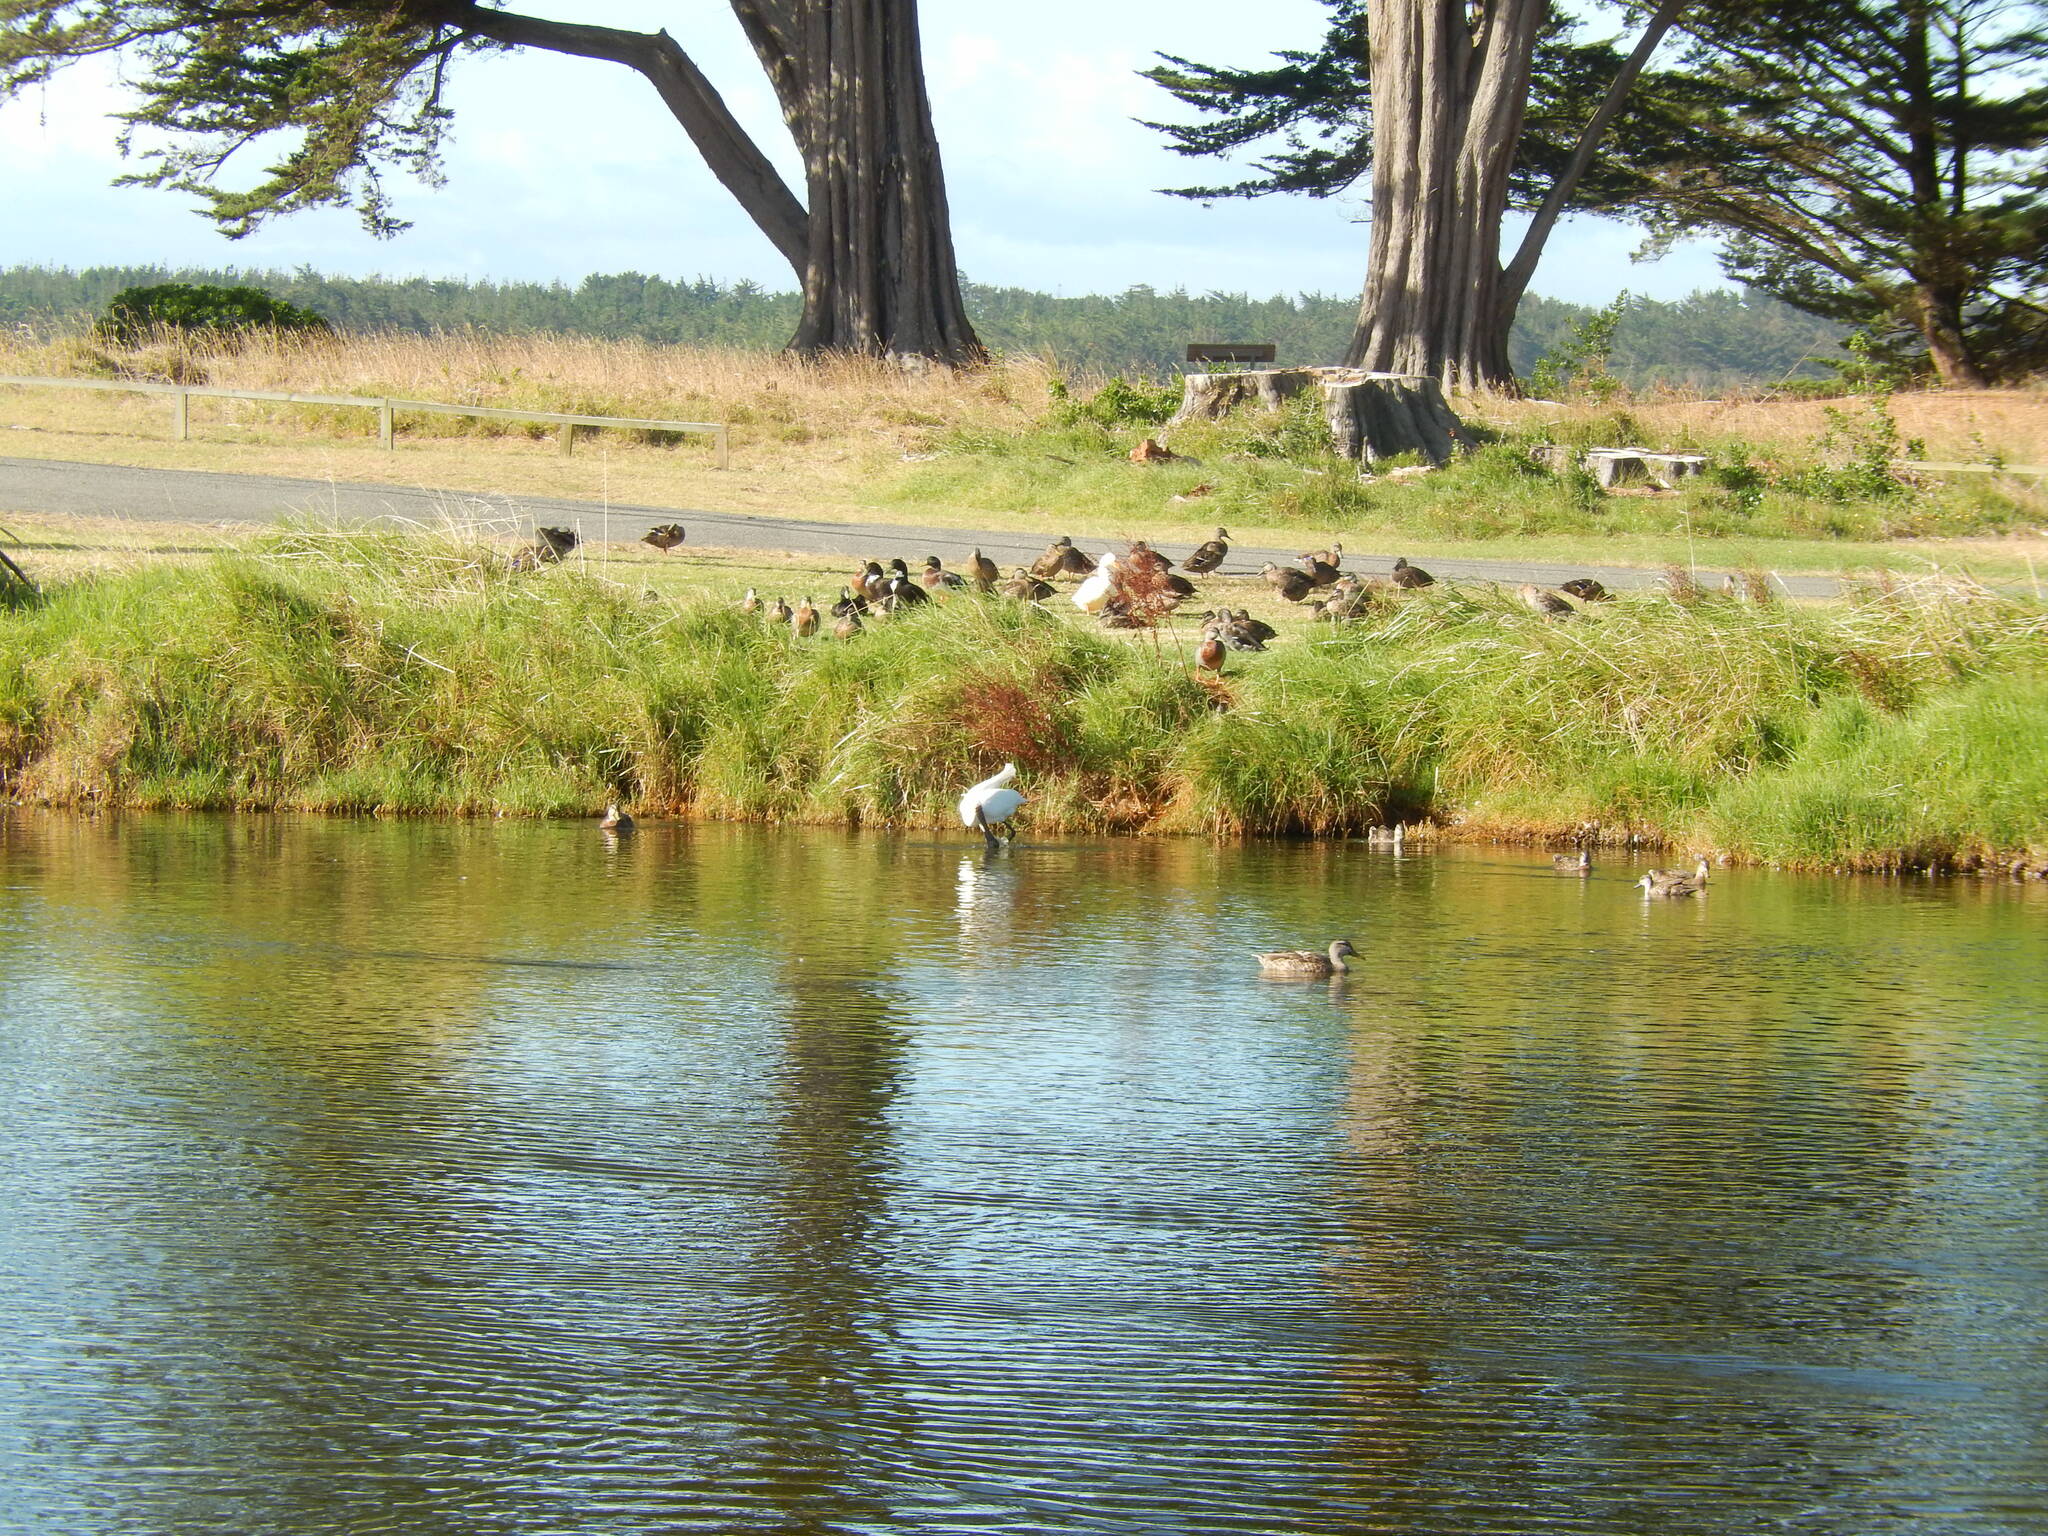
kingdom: Animalia
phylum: Chordata
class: Aves
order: Pelecaniformes
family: Threskiornithidae
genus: Platalea
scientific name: Platalea regia
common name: Royal spoonbill
